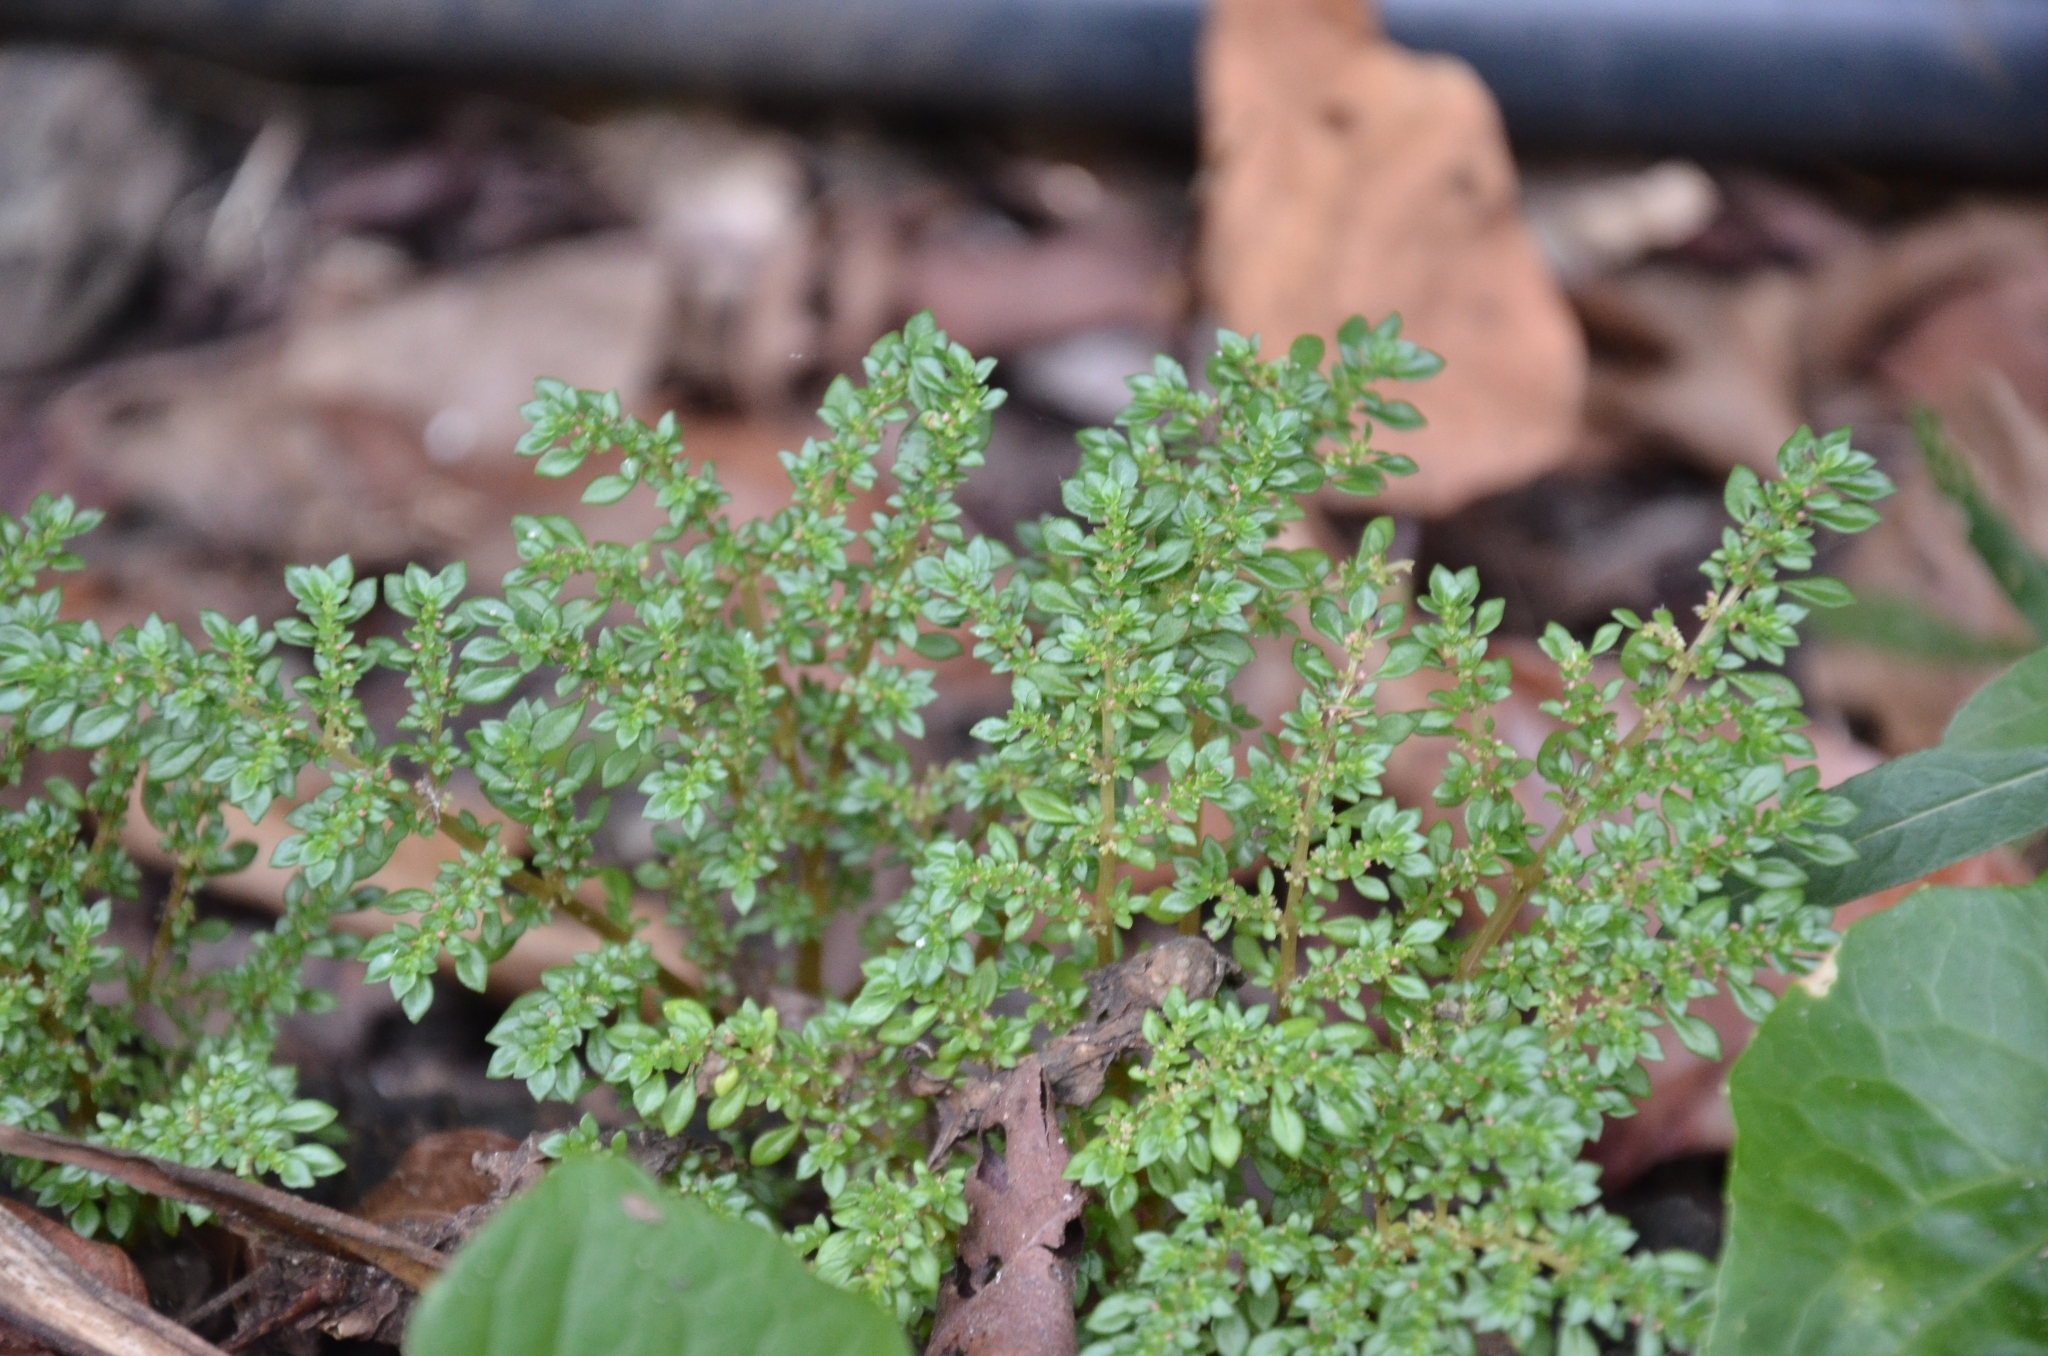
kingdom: Plantae
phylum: Tracheophyta
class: Magnoliopsida
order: Rosales
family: Urticaceae
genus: Pilea
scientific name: Pilea microphylla
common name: Artillery-plant
